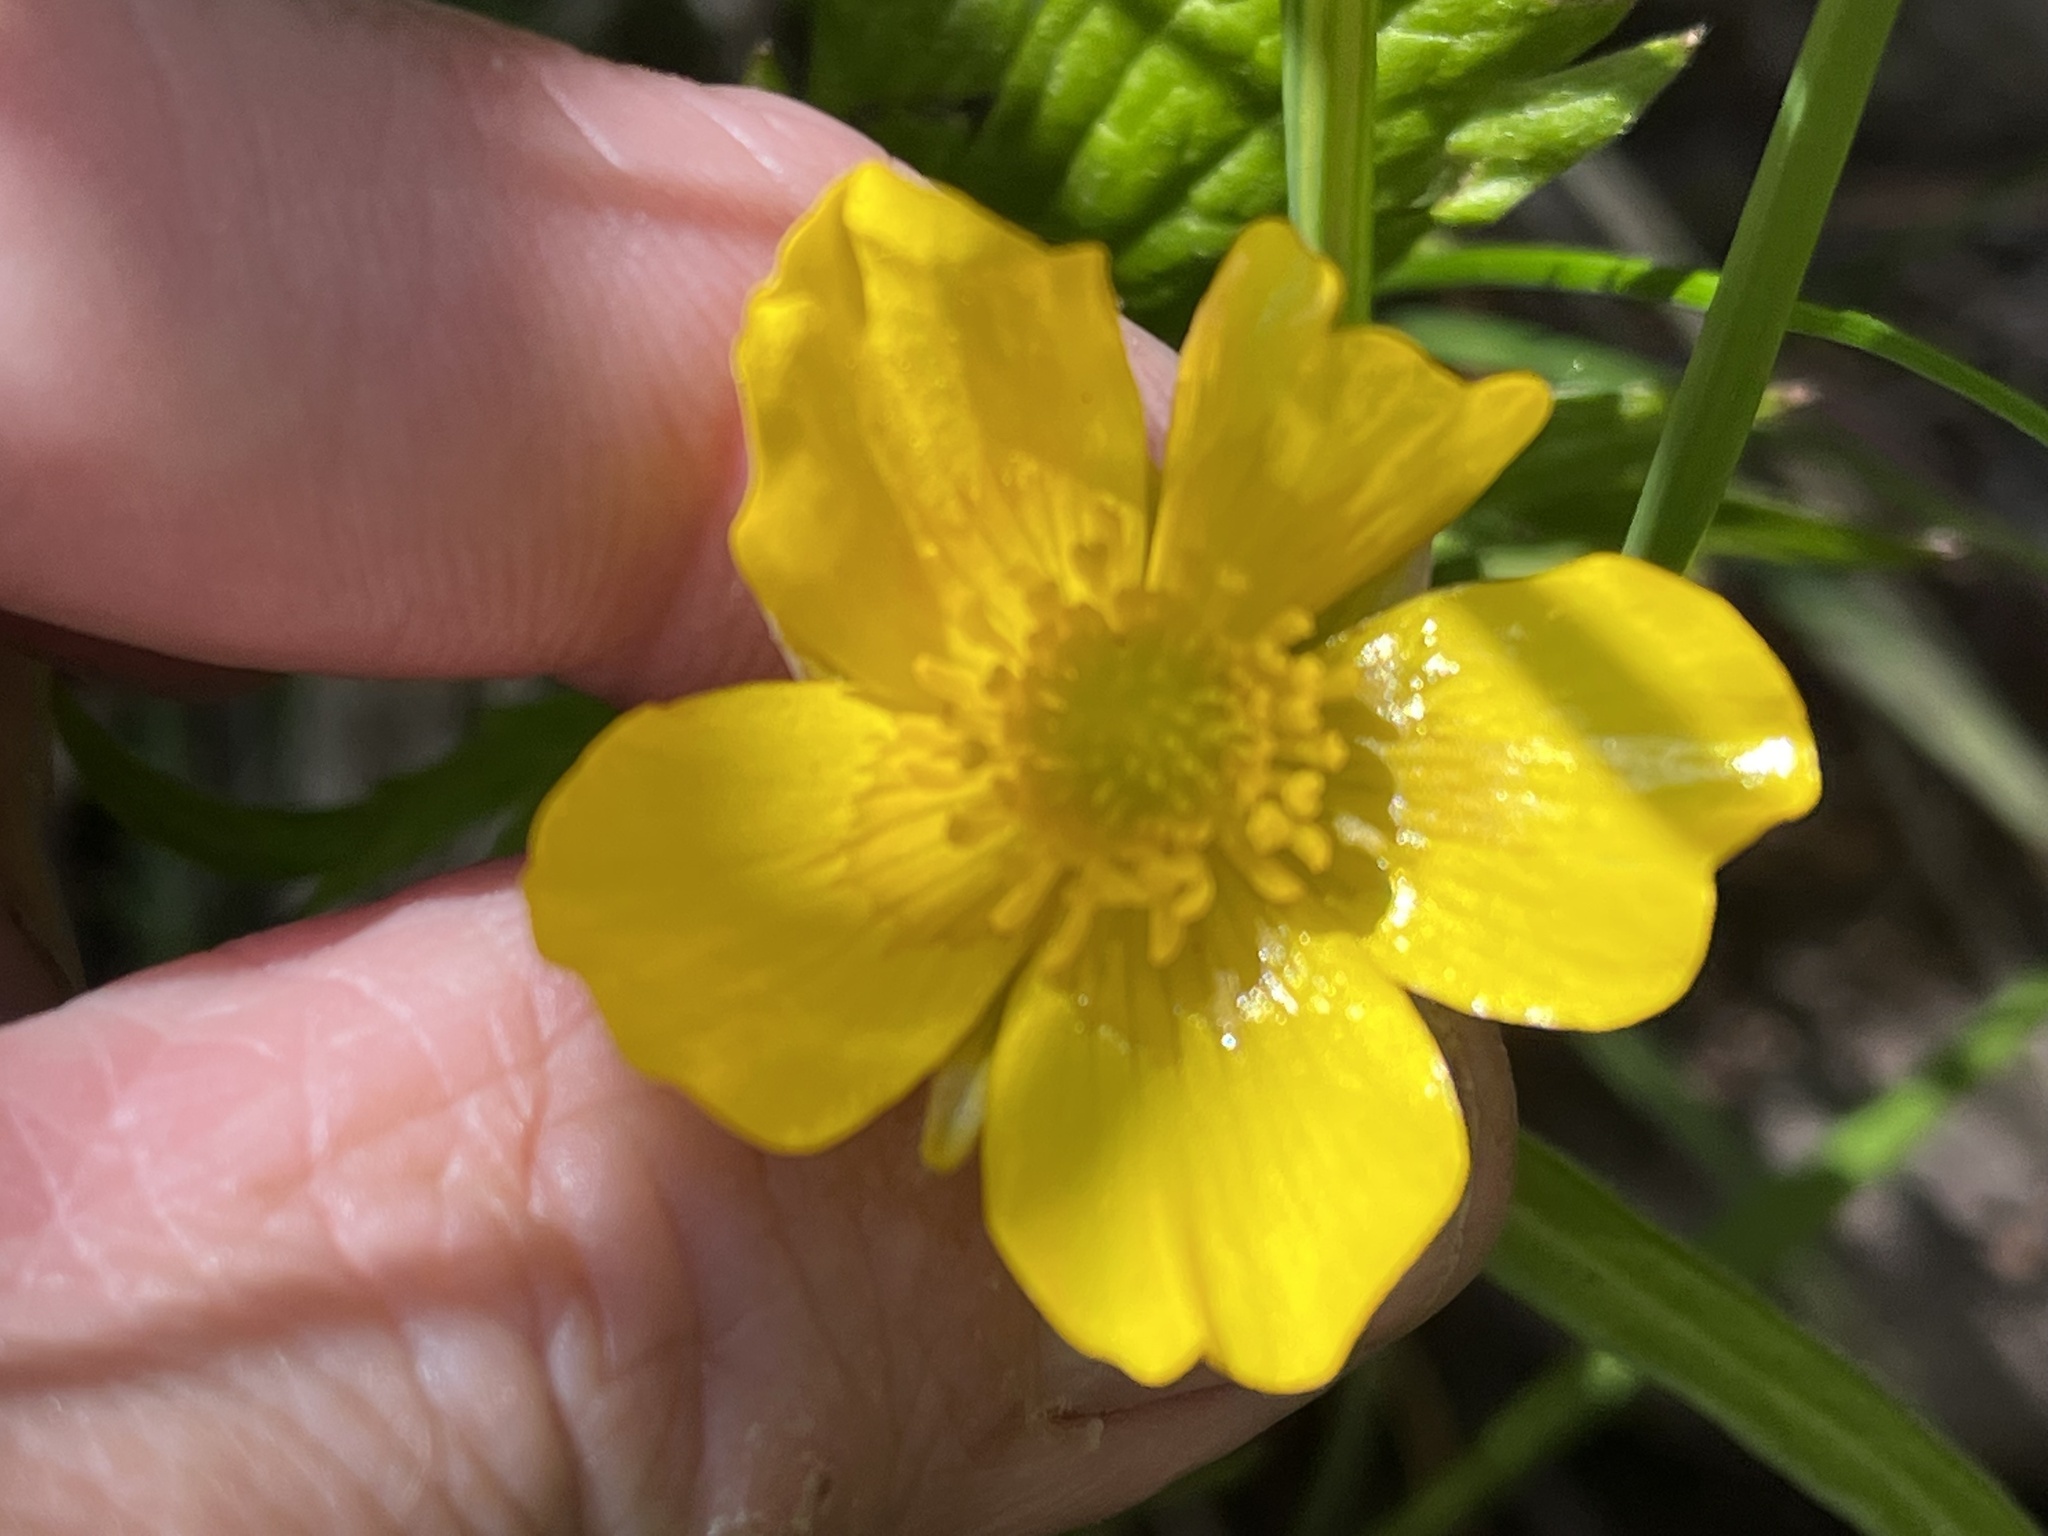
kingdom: Plantae
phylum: Tracheophyta
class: Magnoliopsida
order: Ranunculales
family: Ranunculaceae
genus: Ranunculus
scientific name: Ranunculus hispidus
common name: Bristly buttercup
